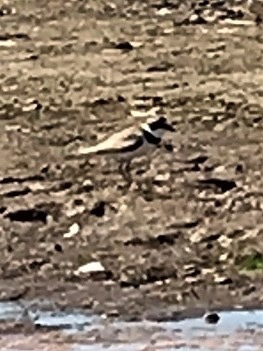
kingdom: Animalia
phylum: Chordata
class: Aves
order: Charadriiformes
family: Charadriidae
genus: Charadrius
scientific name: Charadrius semipalmatus
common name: Semipalmated plover
